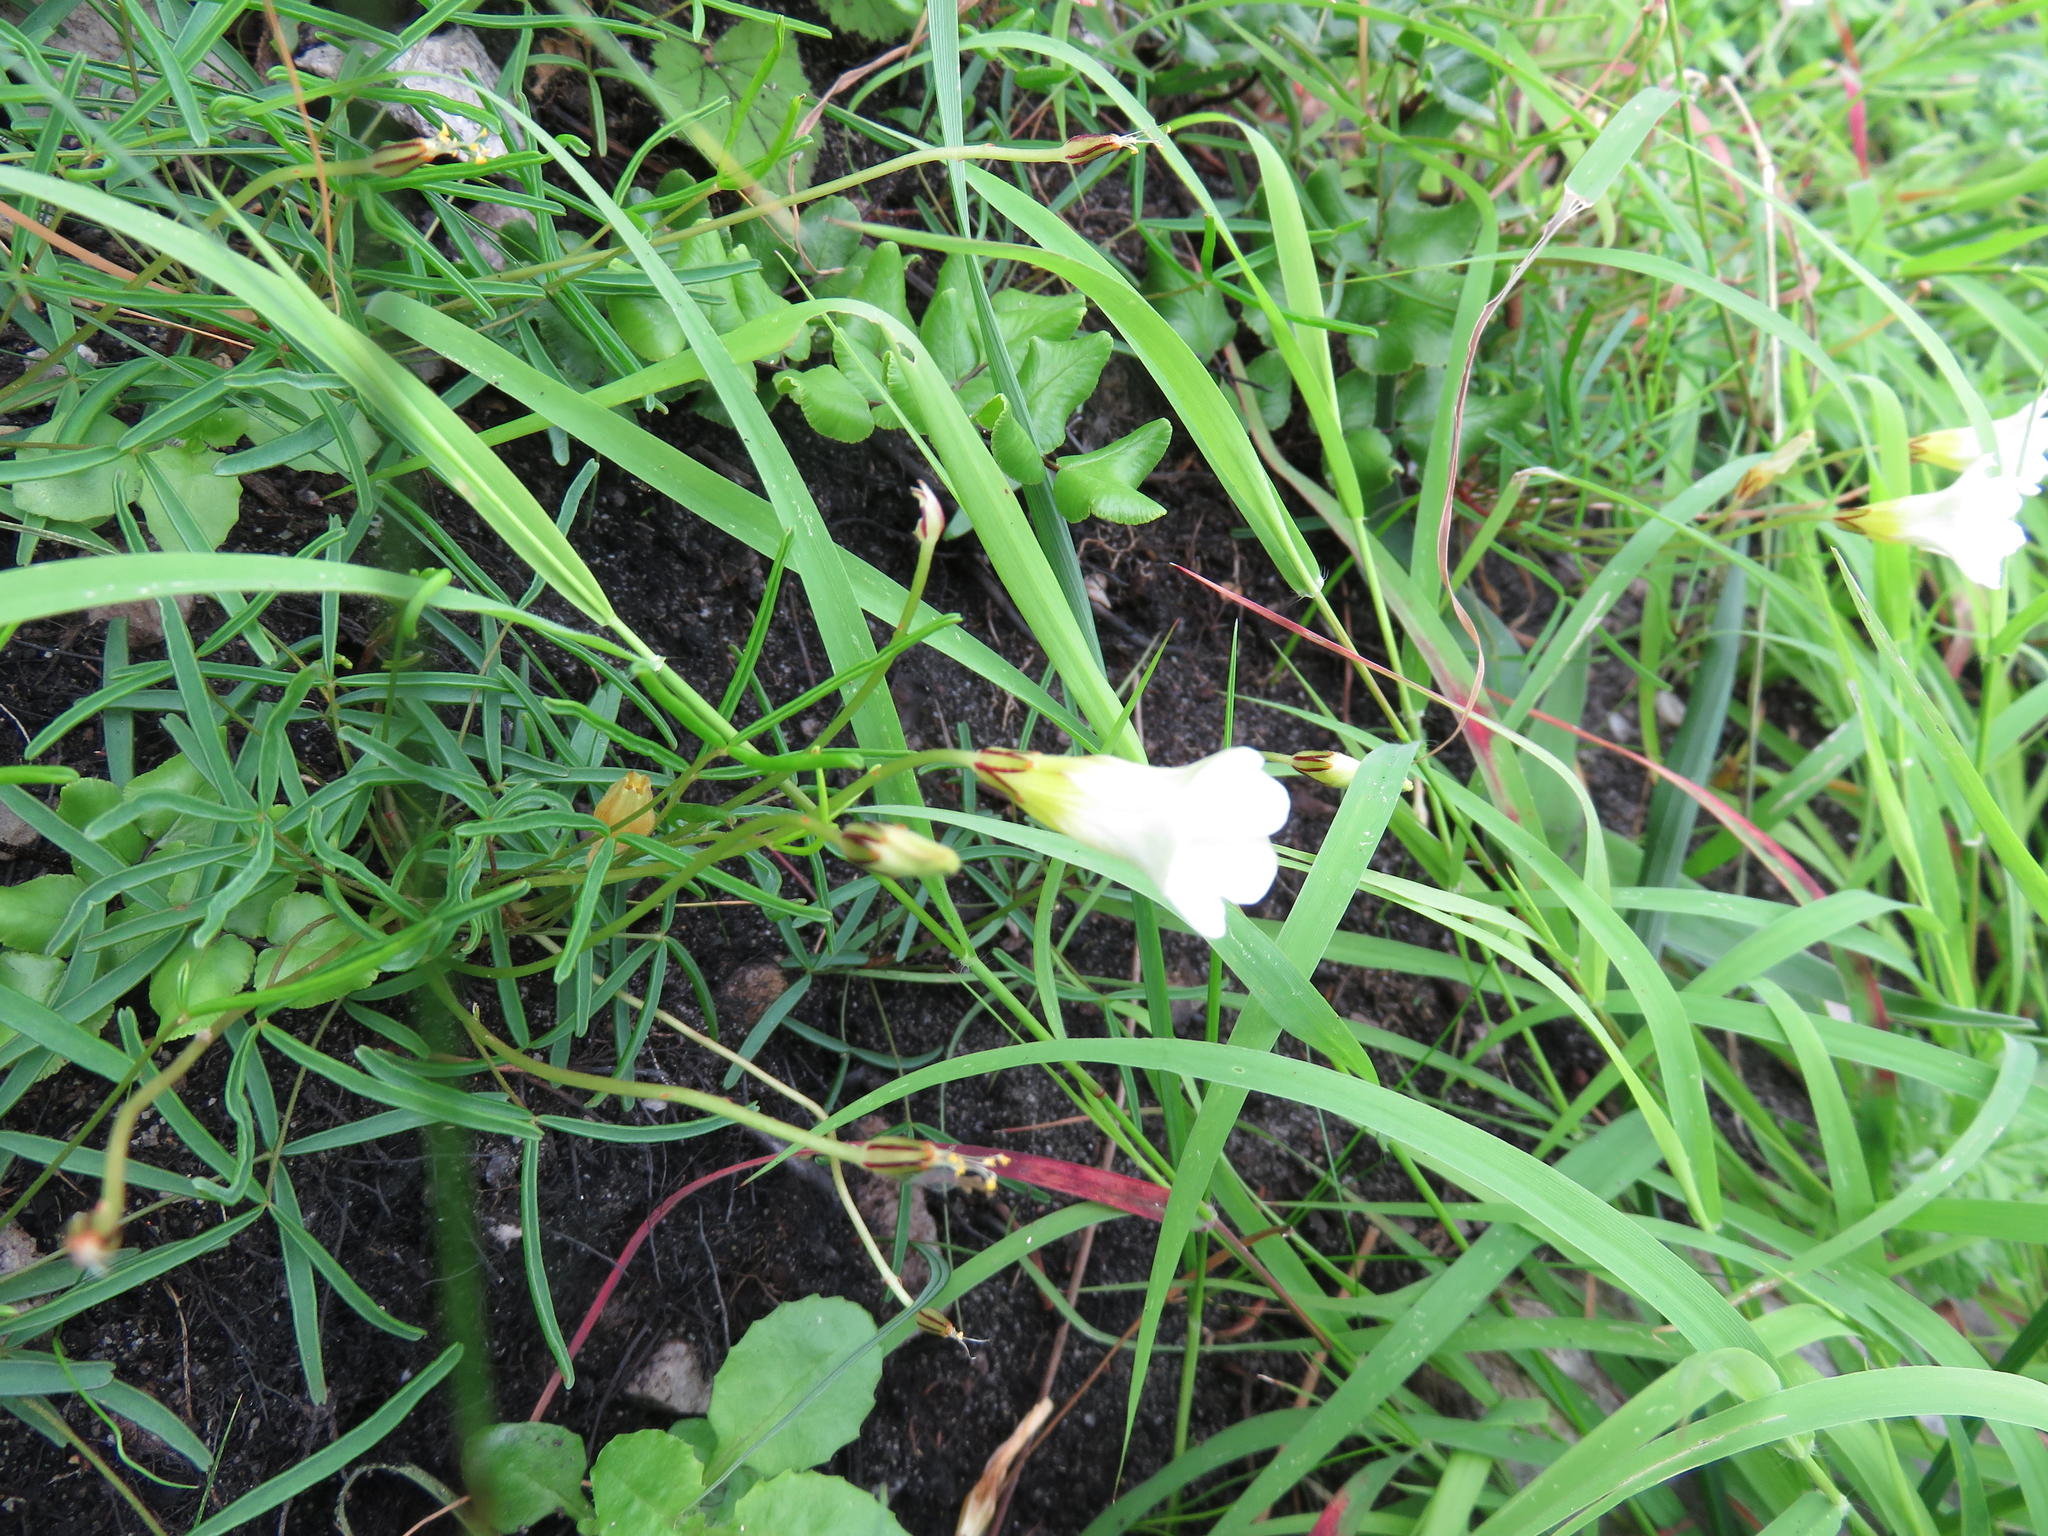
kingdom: Plantae
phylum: Tracheophyta
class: Magnoliopsida
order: Oxalidales
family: Oxalidaceae
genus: Oxalis
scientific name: Oxalis polyphylla
